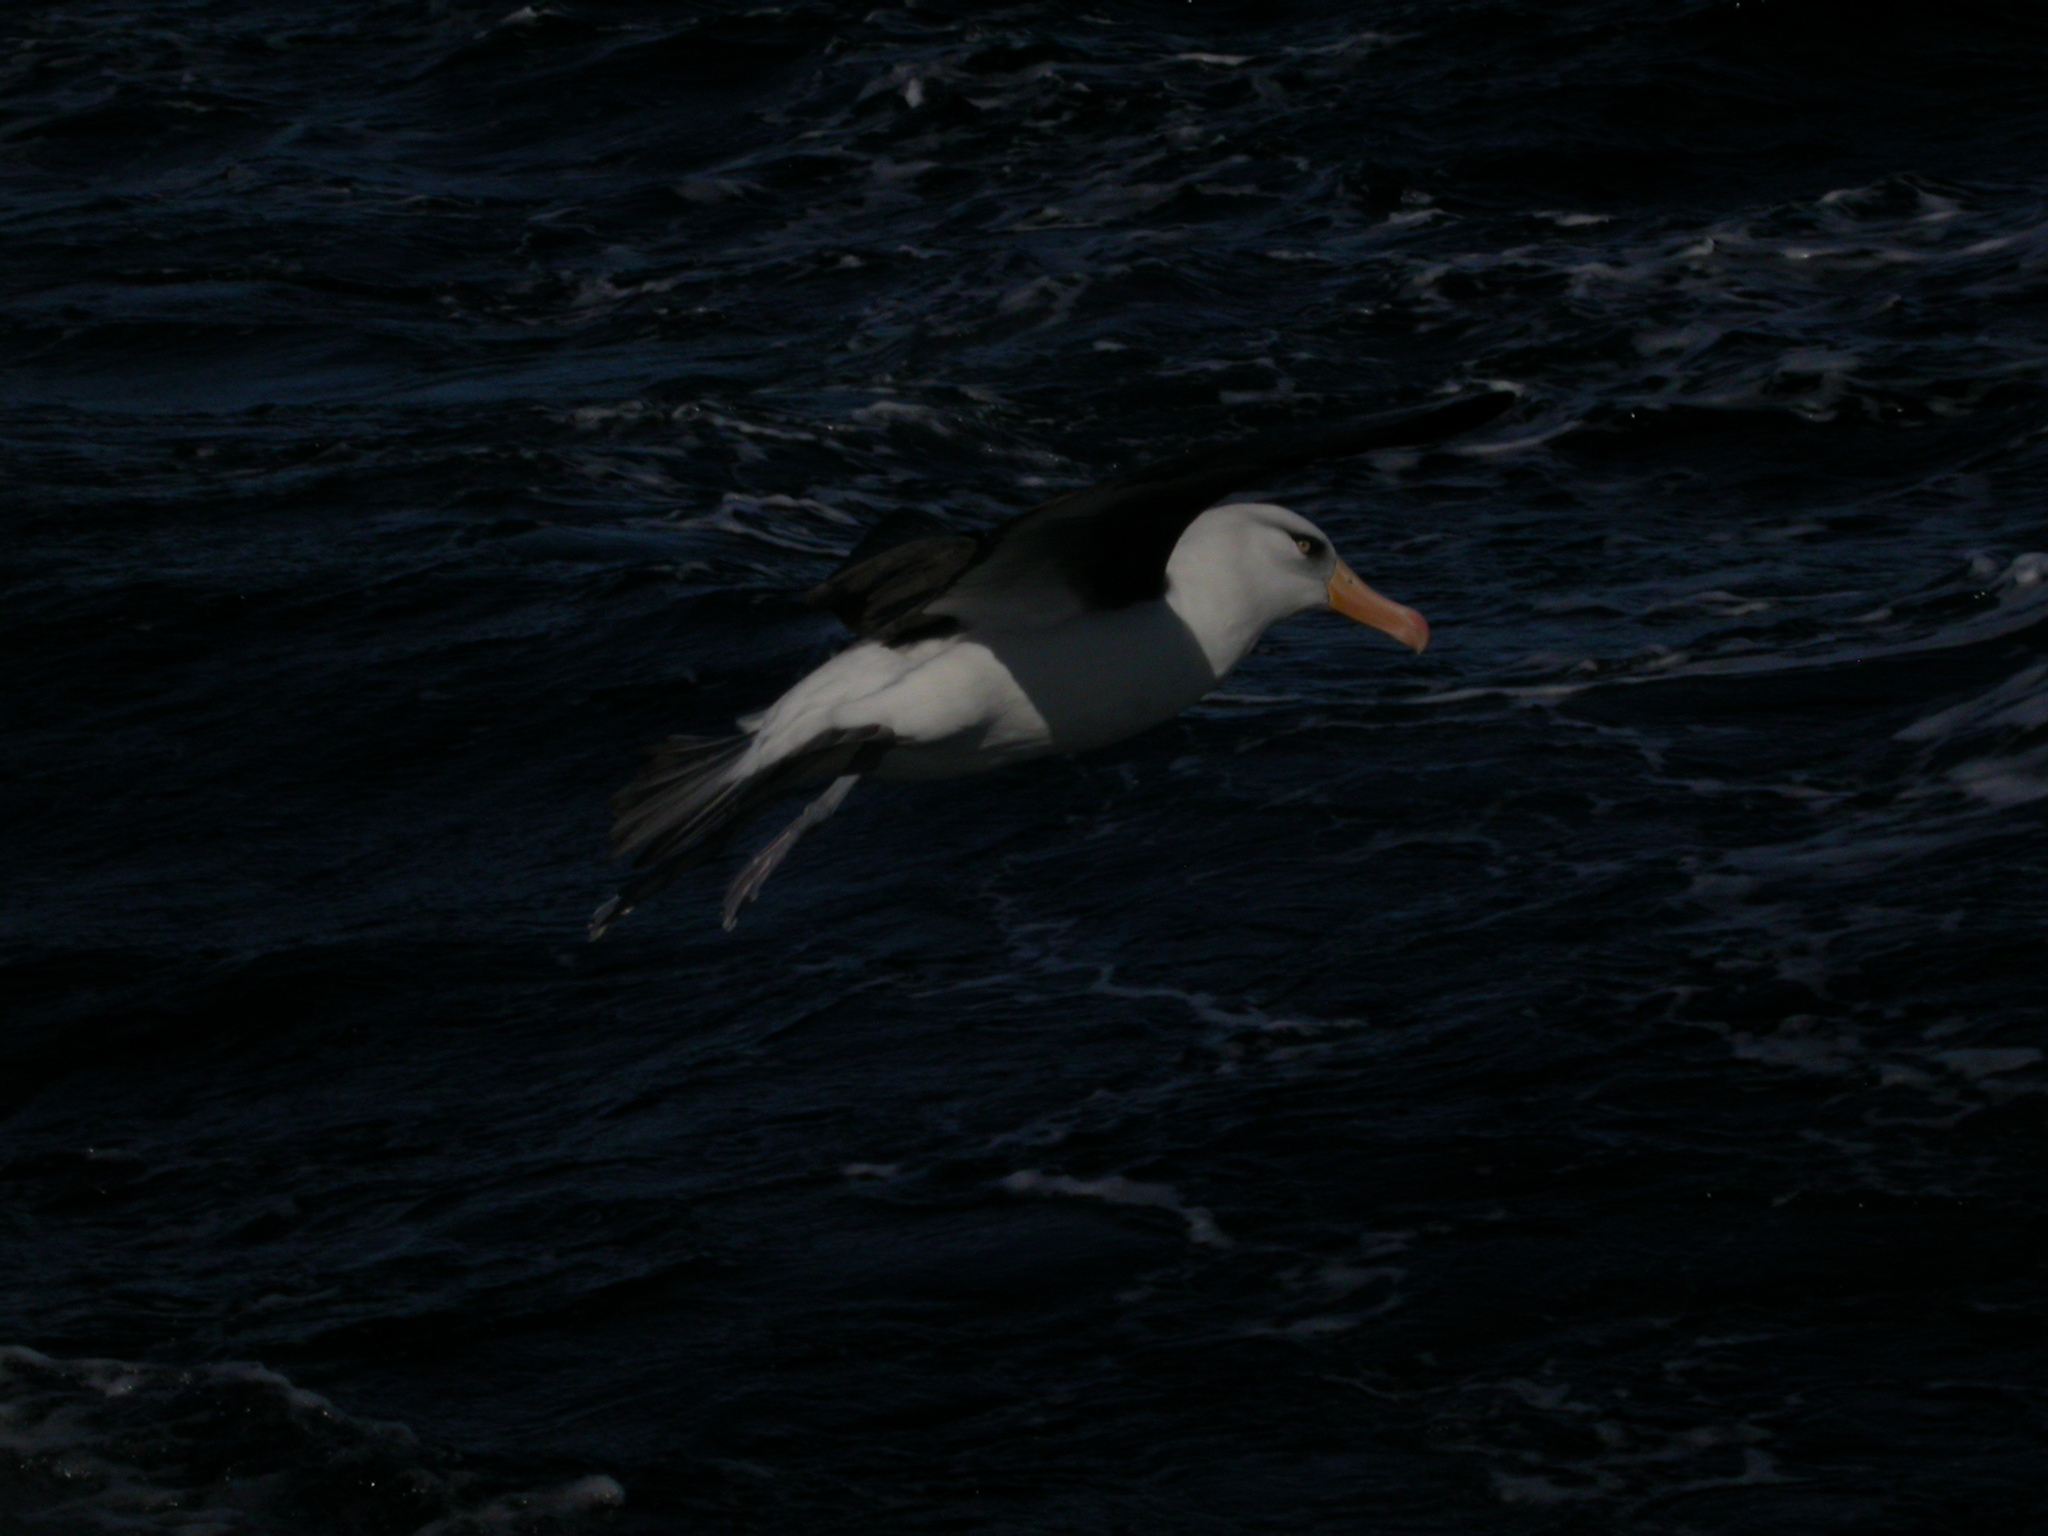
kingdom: Animalia
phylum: Chordata
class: Aves
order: Procellariiformes
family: Diomedeidae
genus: Thalassarche
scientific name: Thalassarche impavida
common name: Campbell albatross
